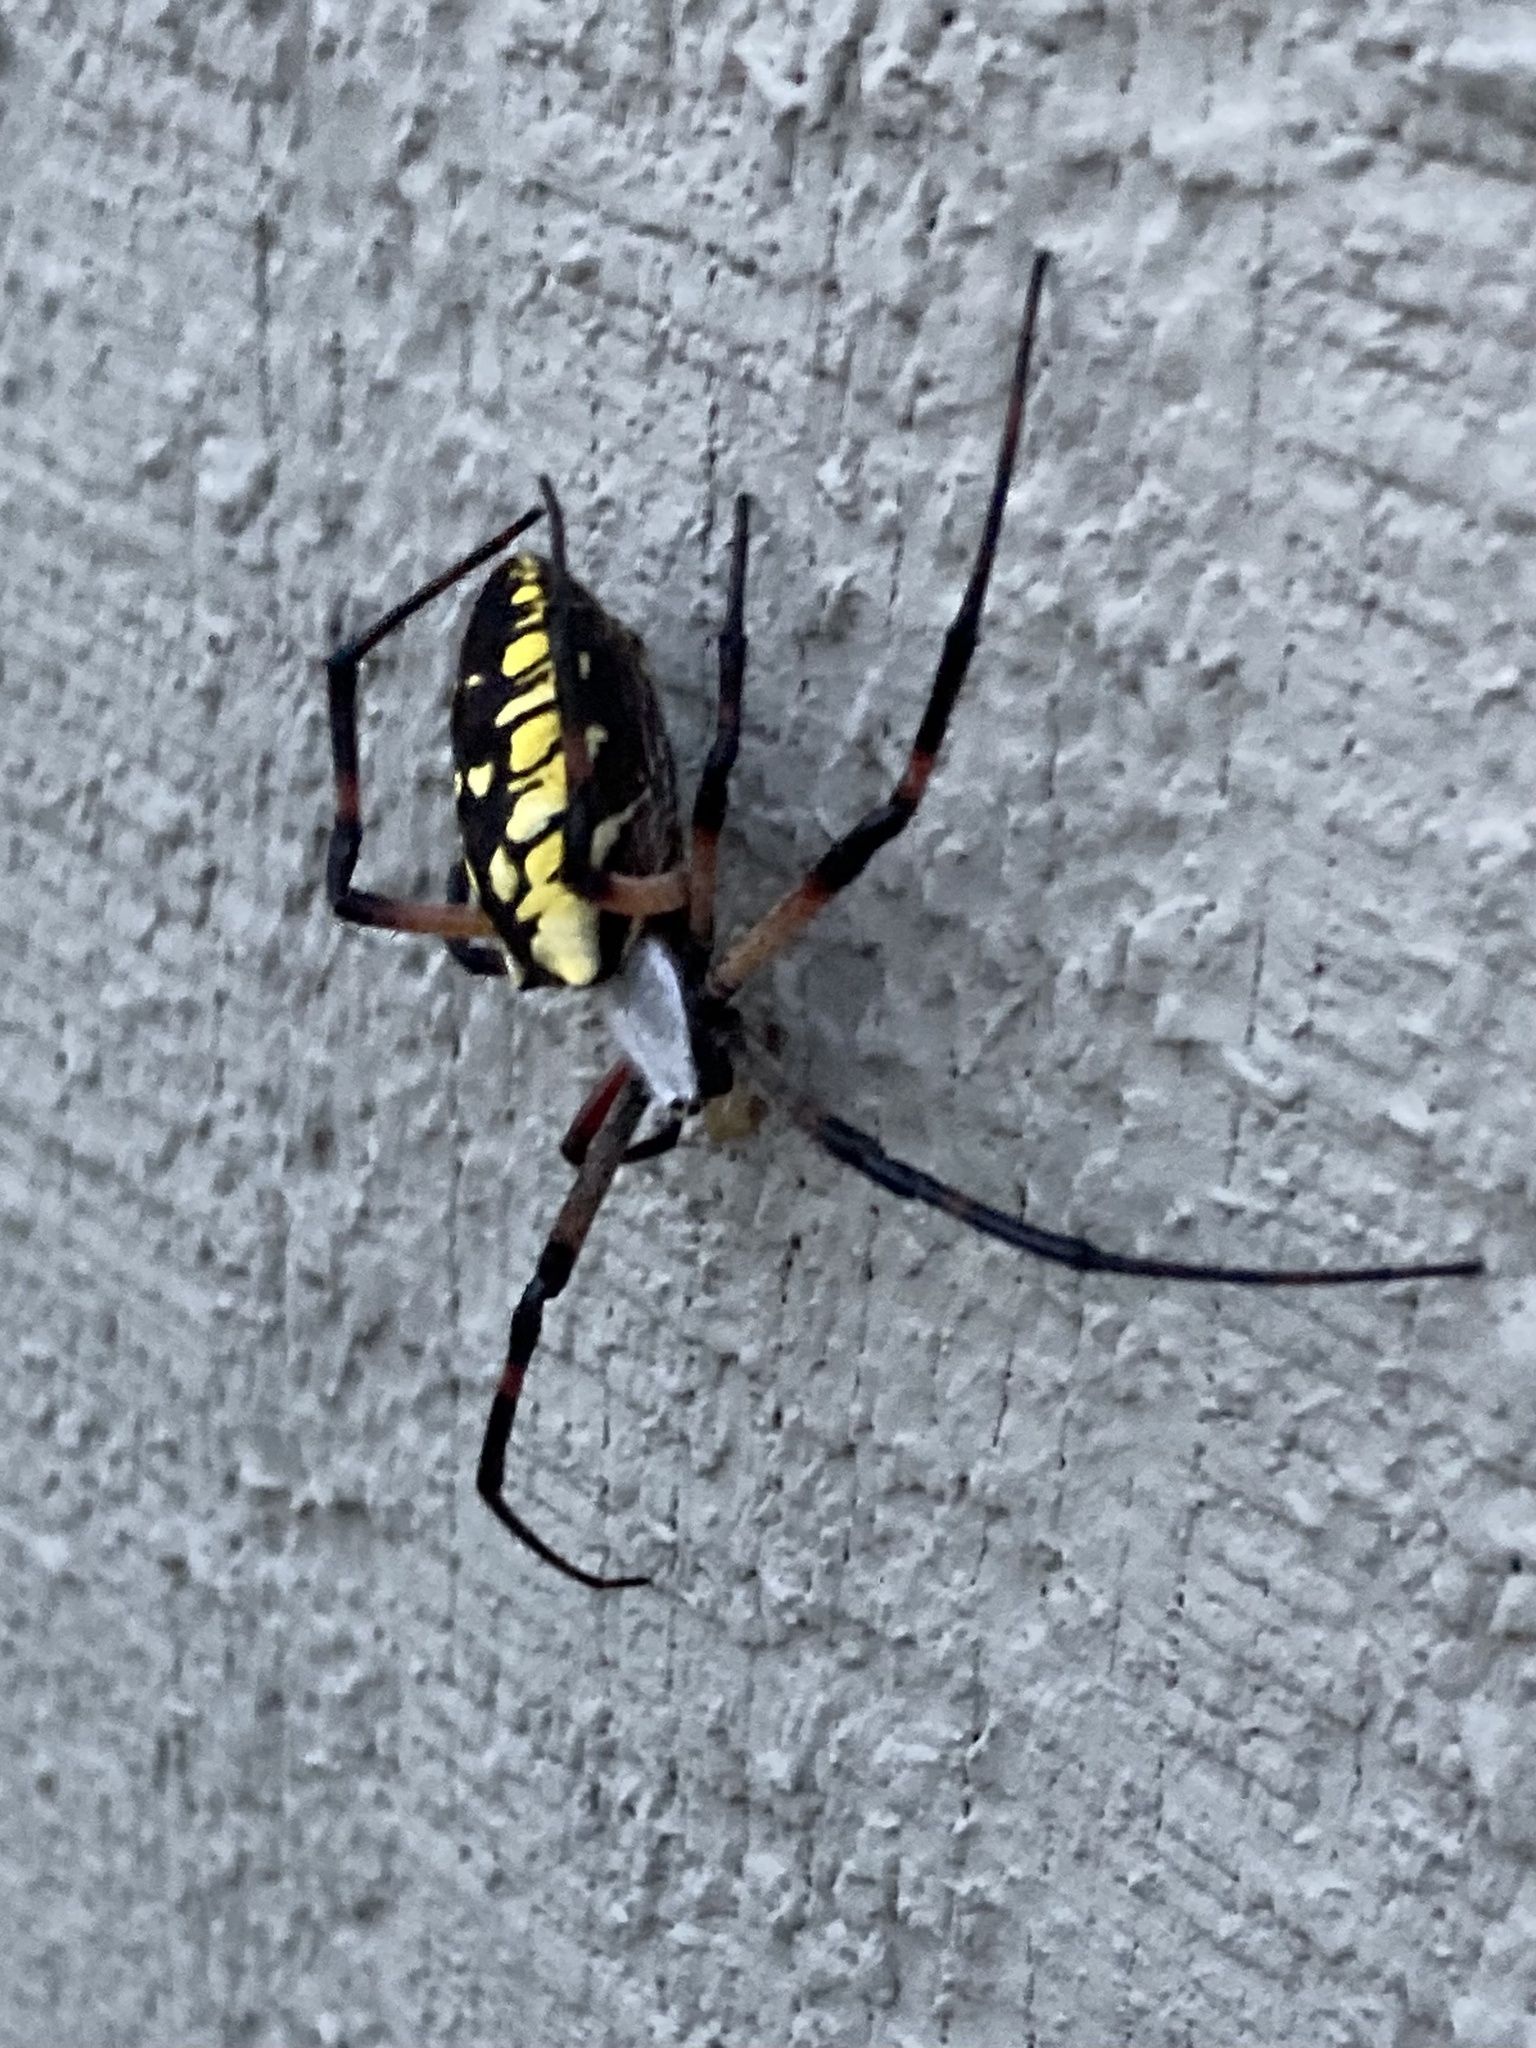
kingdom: Animalia
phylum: Arthropoda
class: Arachnida
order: Araneae
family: Araneidae
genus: Argiope
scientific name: Argiope aurantia
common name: Orb weavers
